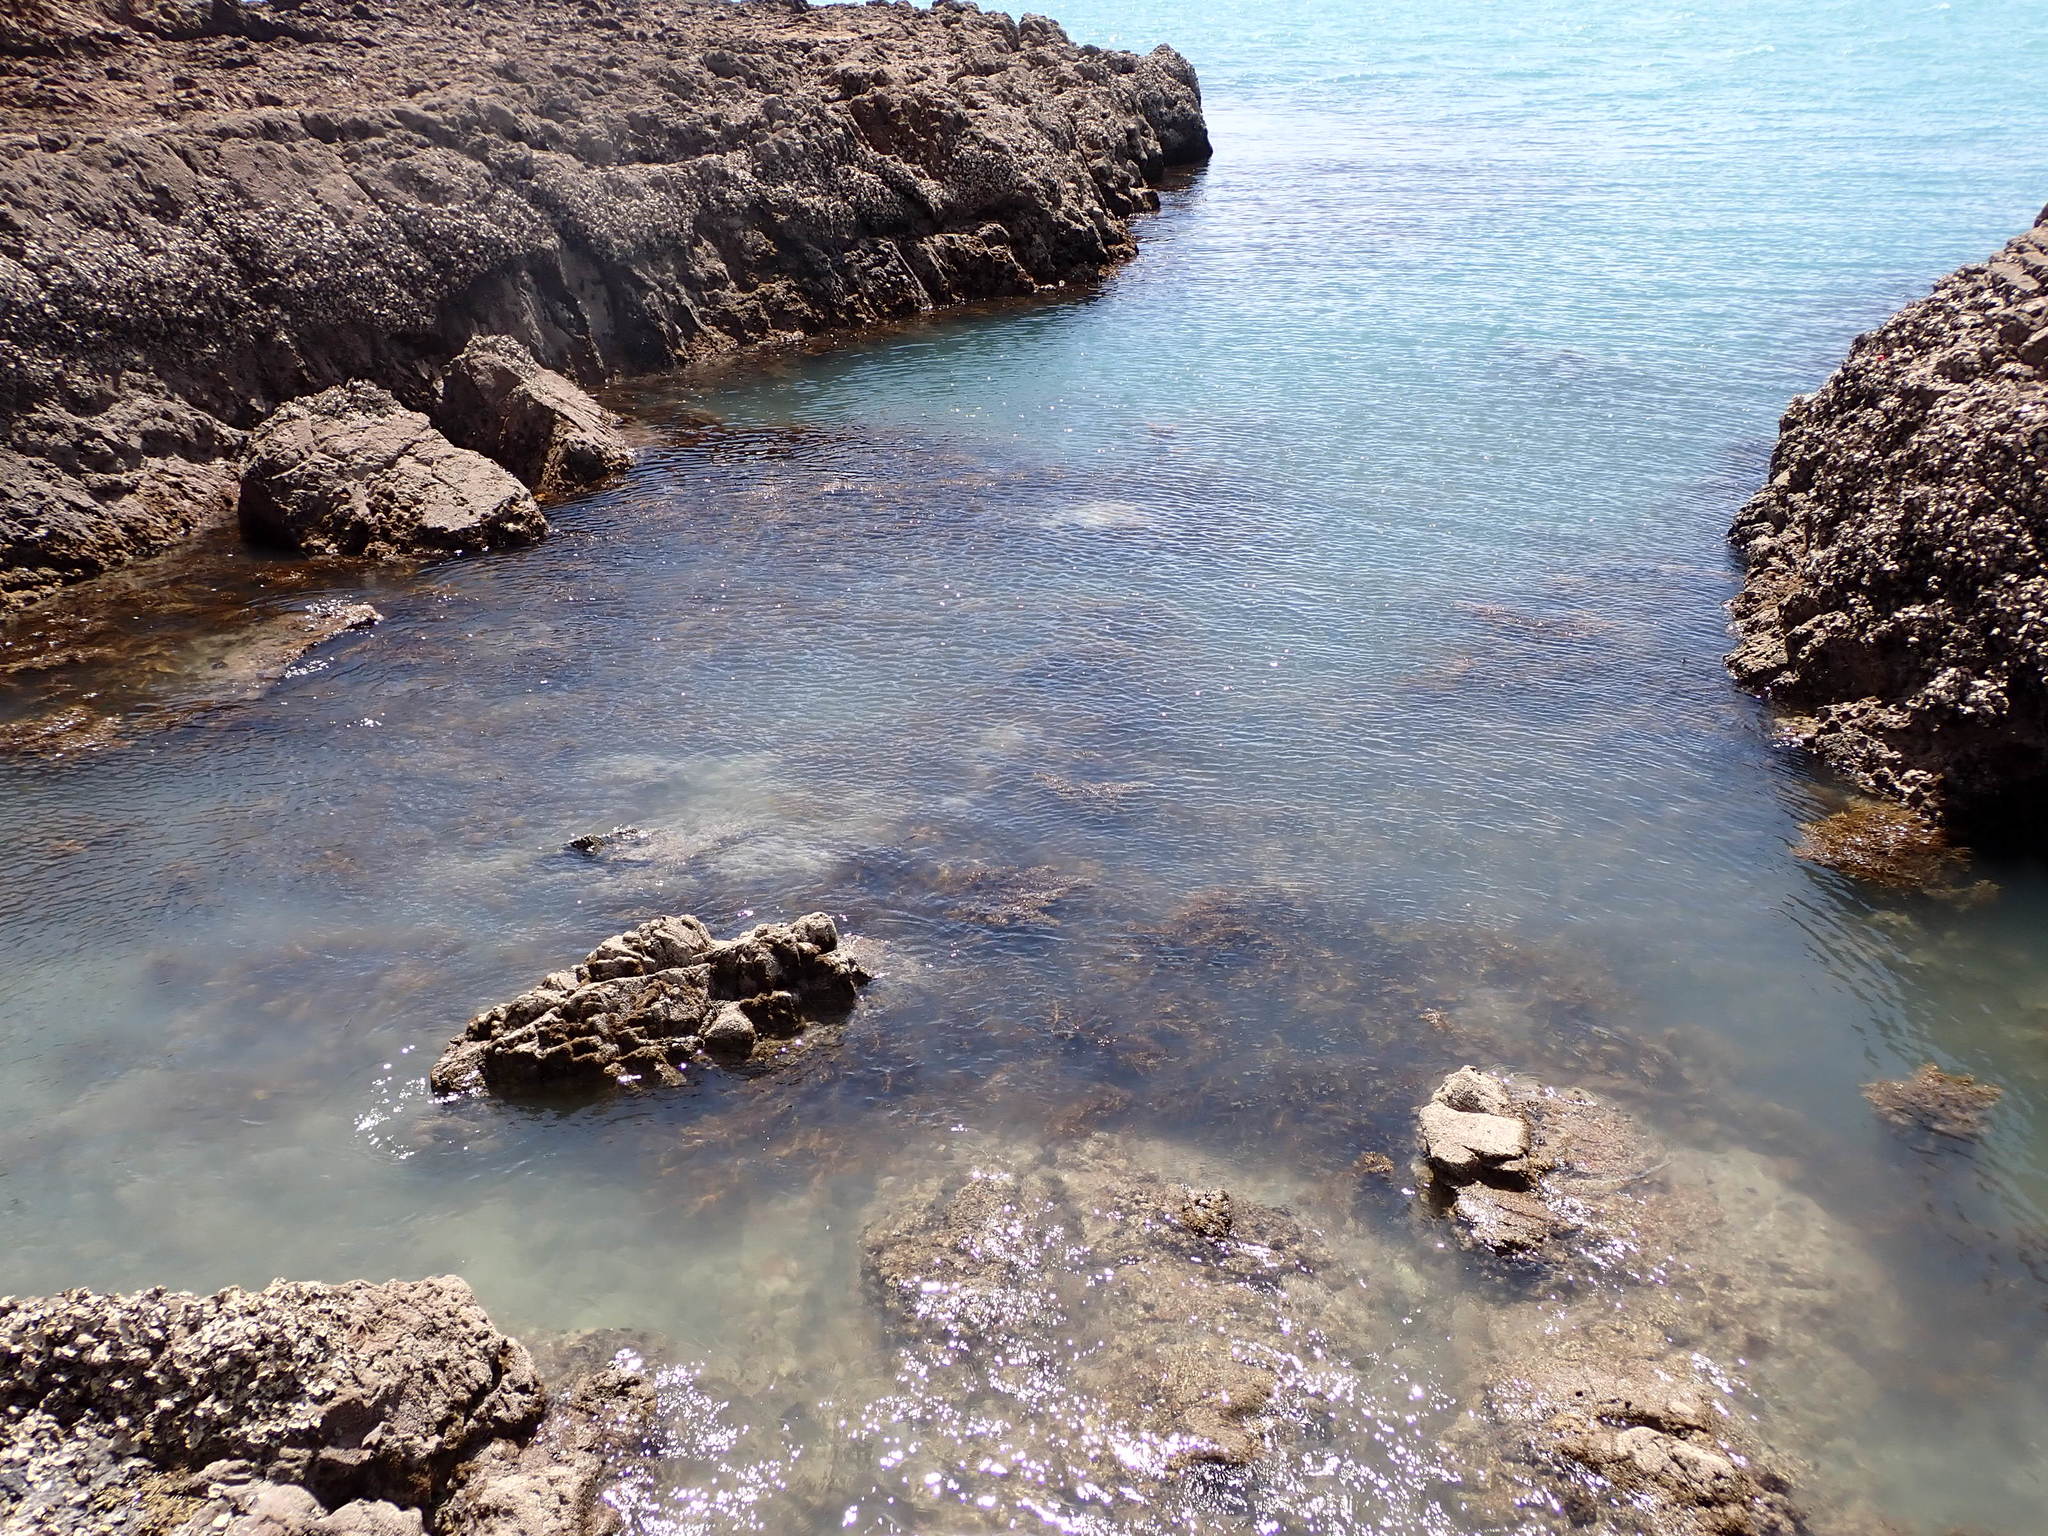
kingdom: Chromista
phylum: Ochrophyta
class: Phaeophyceae
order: Fucales
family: Sargassaceae
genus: Carpophyllum
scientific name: Carpophyllum maschalocarpum
